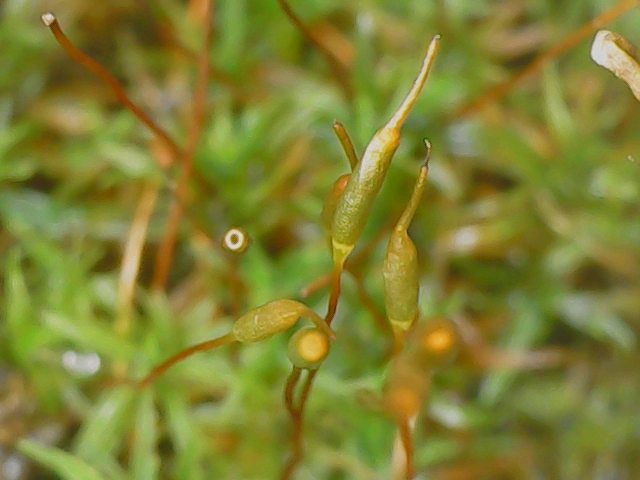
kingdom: Plantae
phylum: Bryophyta
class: Bryopsida
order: Pottiales
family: Pottiaceae
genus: Bryoerythrophyllum
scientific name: Bryoerythrophyllum recurvirostrum
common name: Red beard moss
